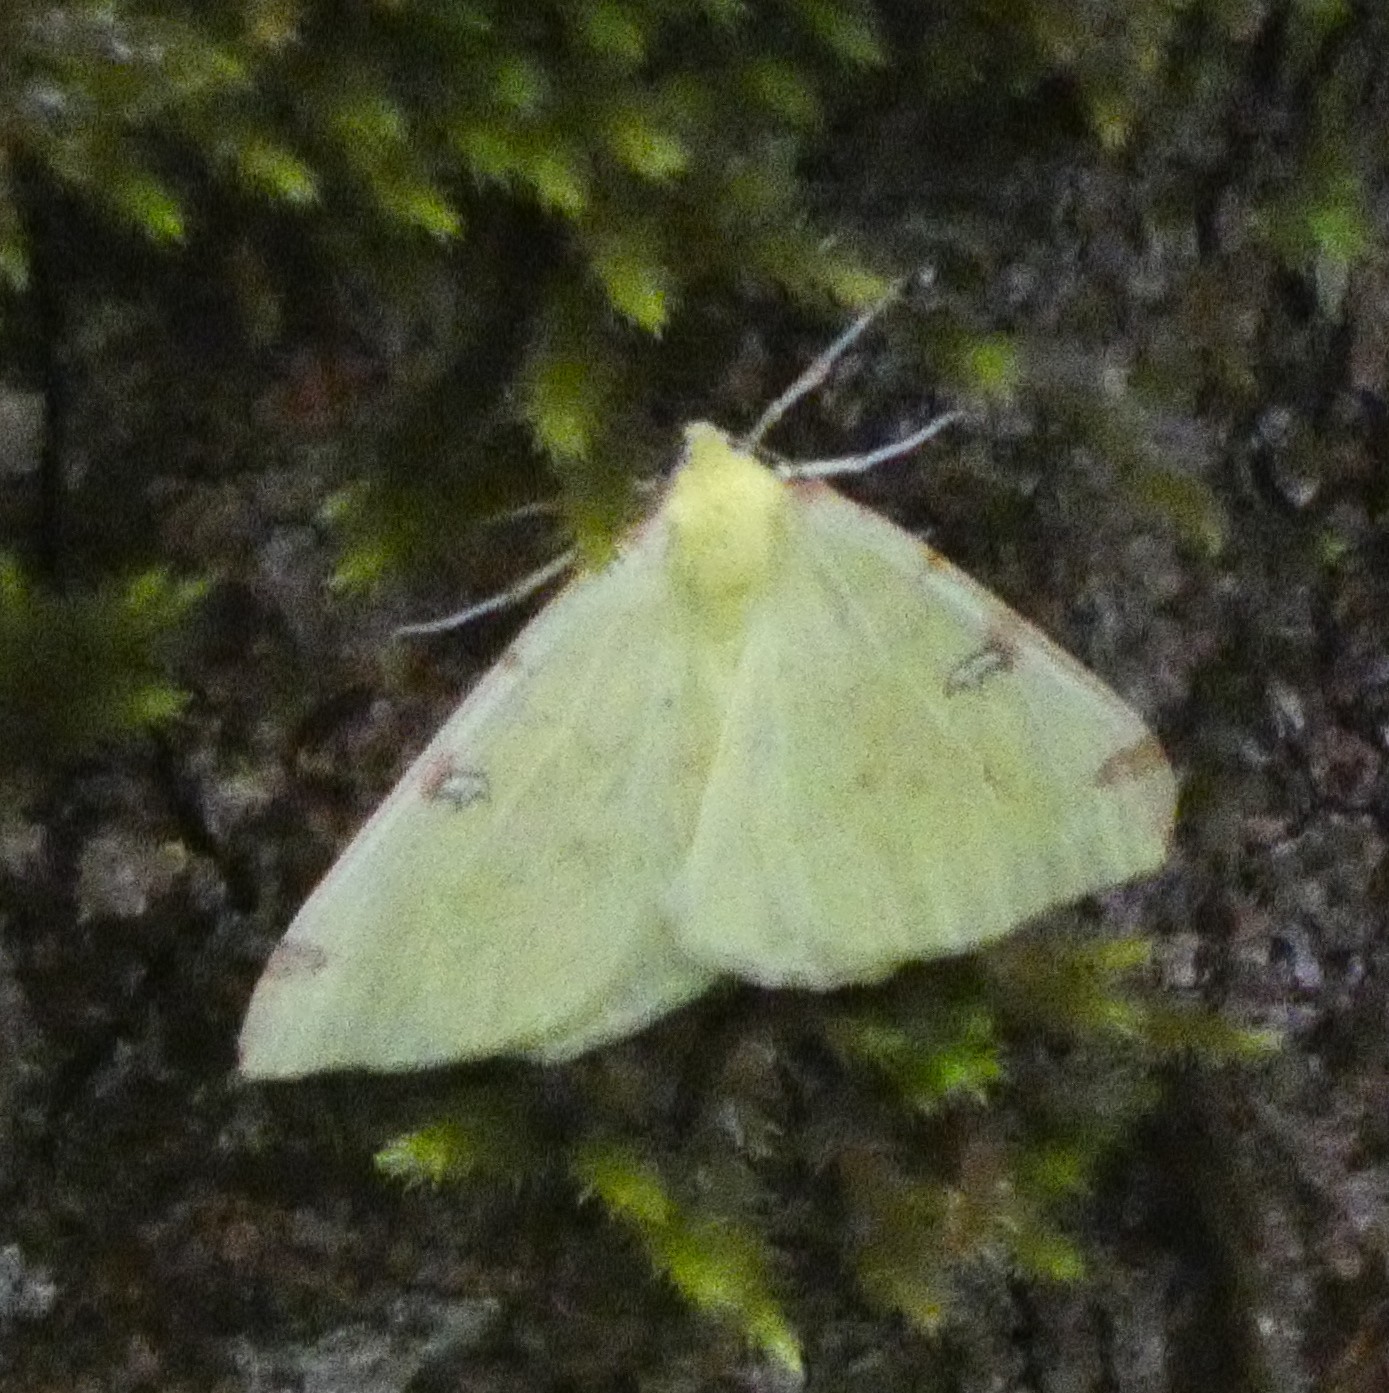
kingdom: Animalia
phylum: Arthropoda
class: Insecta
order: Lepidoptera
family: Geometridae
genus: Opisthograptis
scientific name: Opisthograptis luteolata
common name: Brimstone moth
